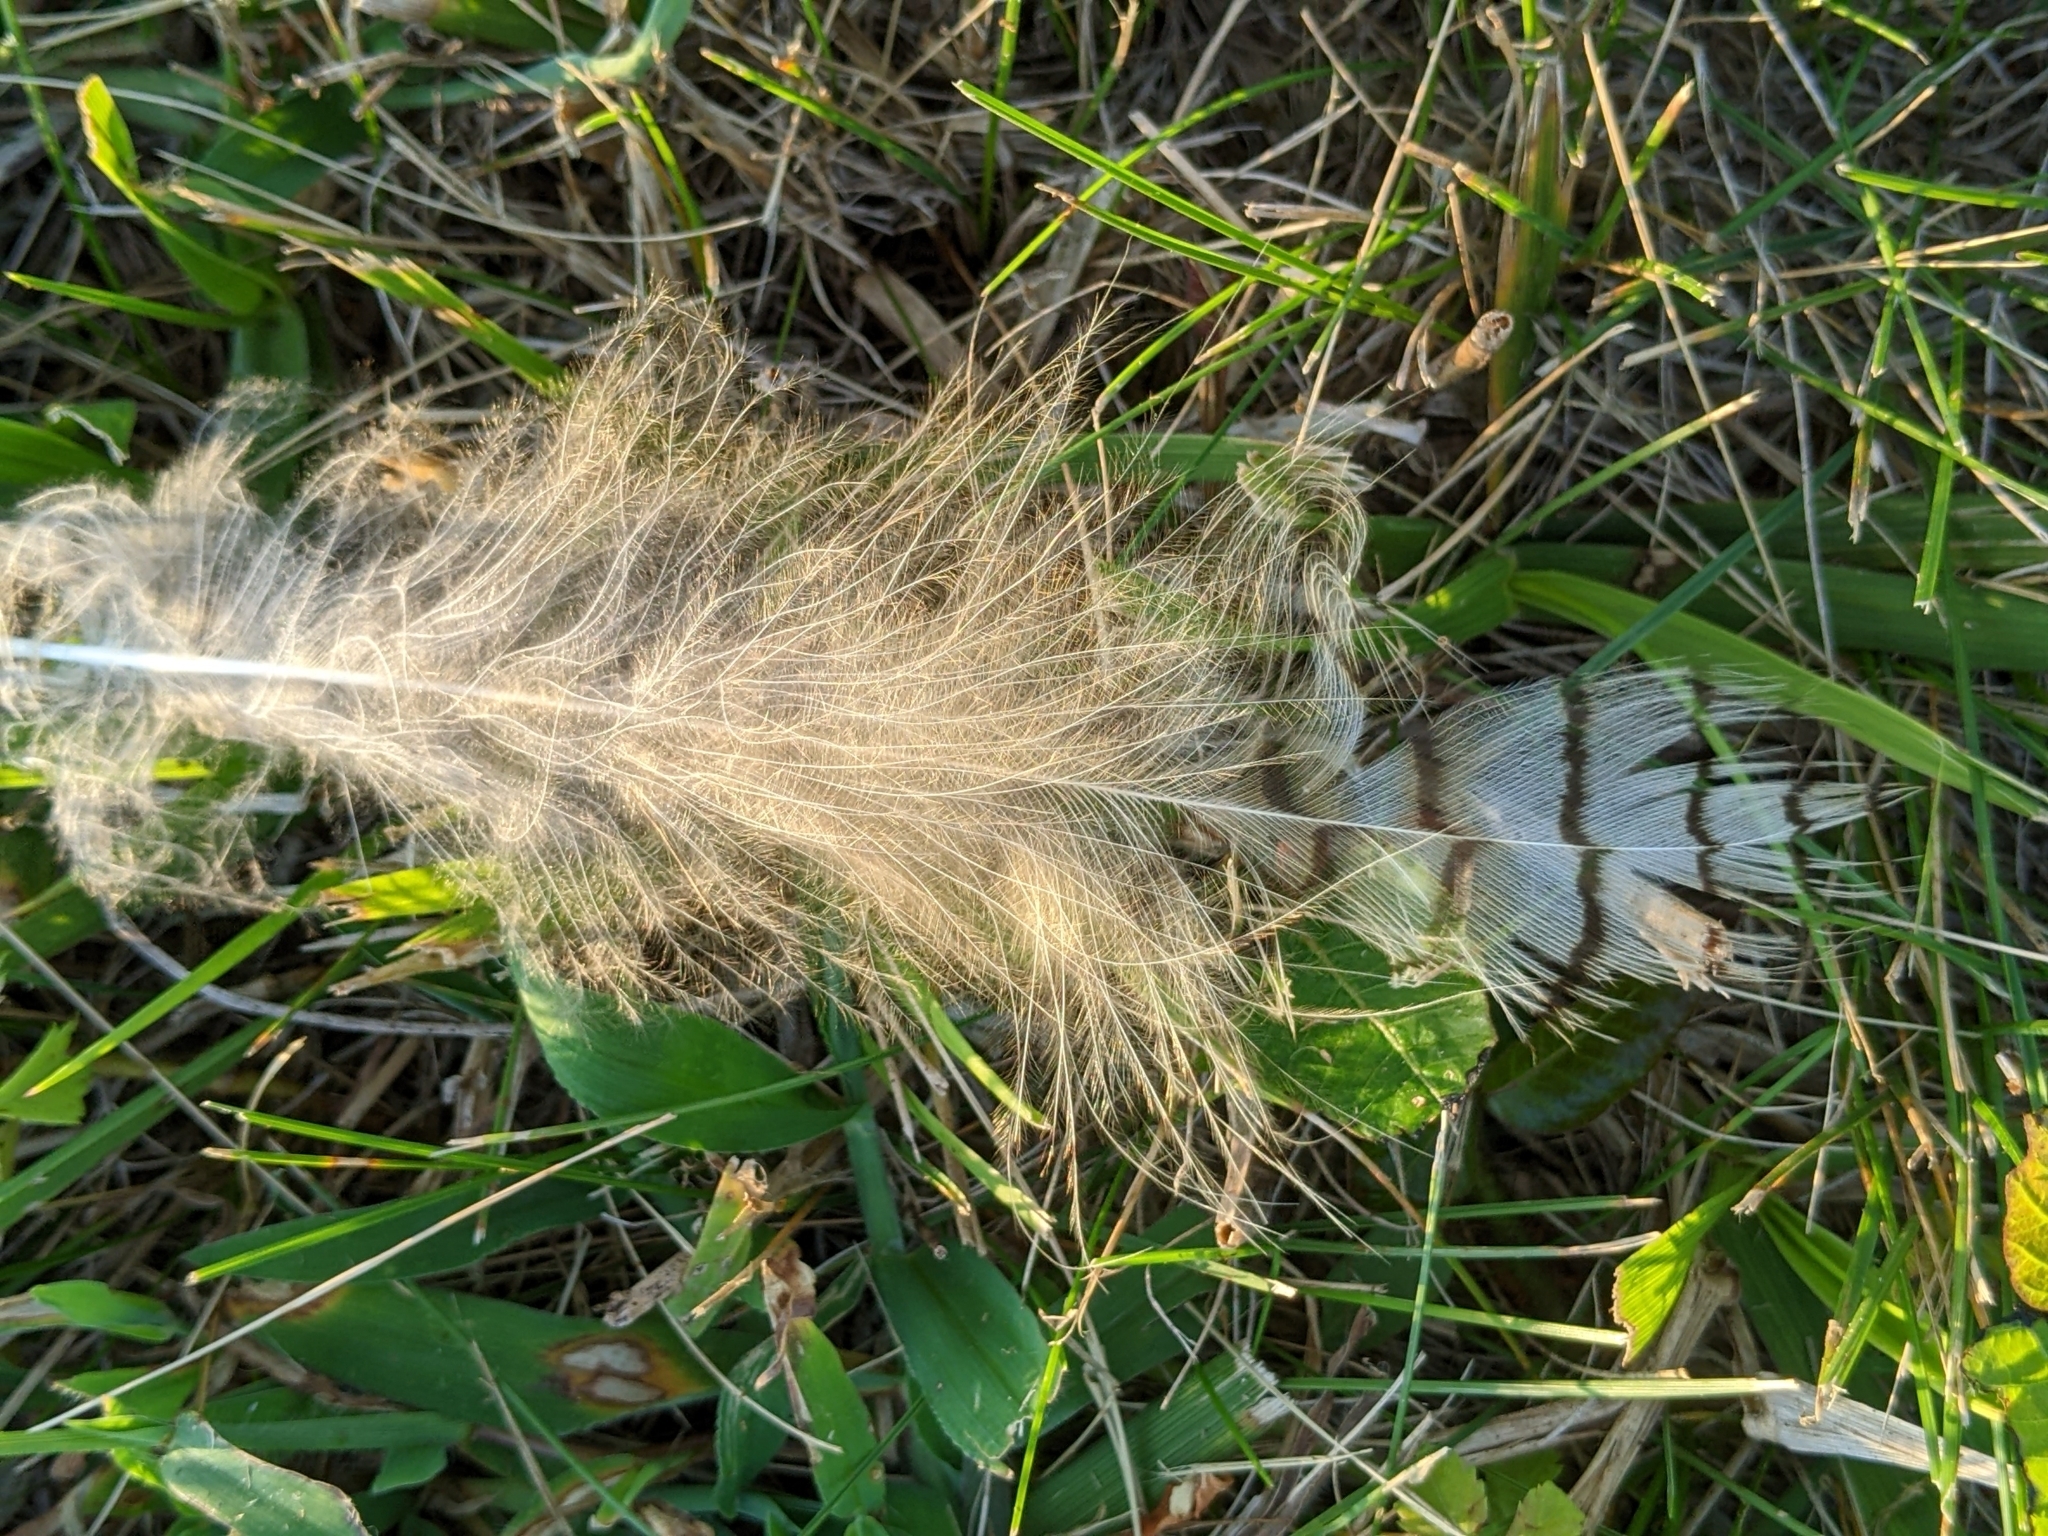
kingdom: Animalia
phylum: Chordata
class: Aves
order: Strigiformes
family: Strigidae
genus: Bubo
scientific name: Bubo virginianus
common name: Great horned owl
